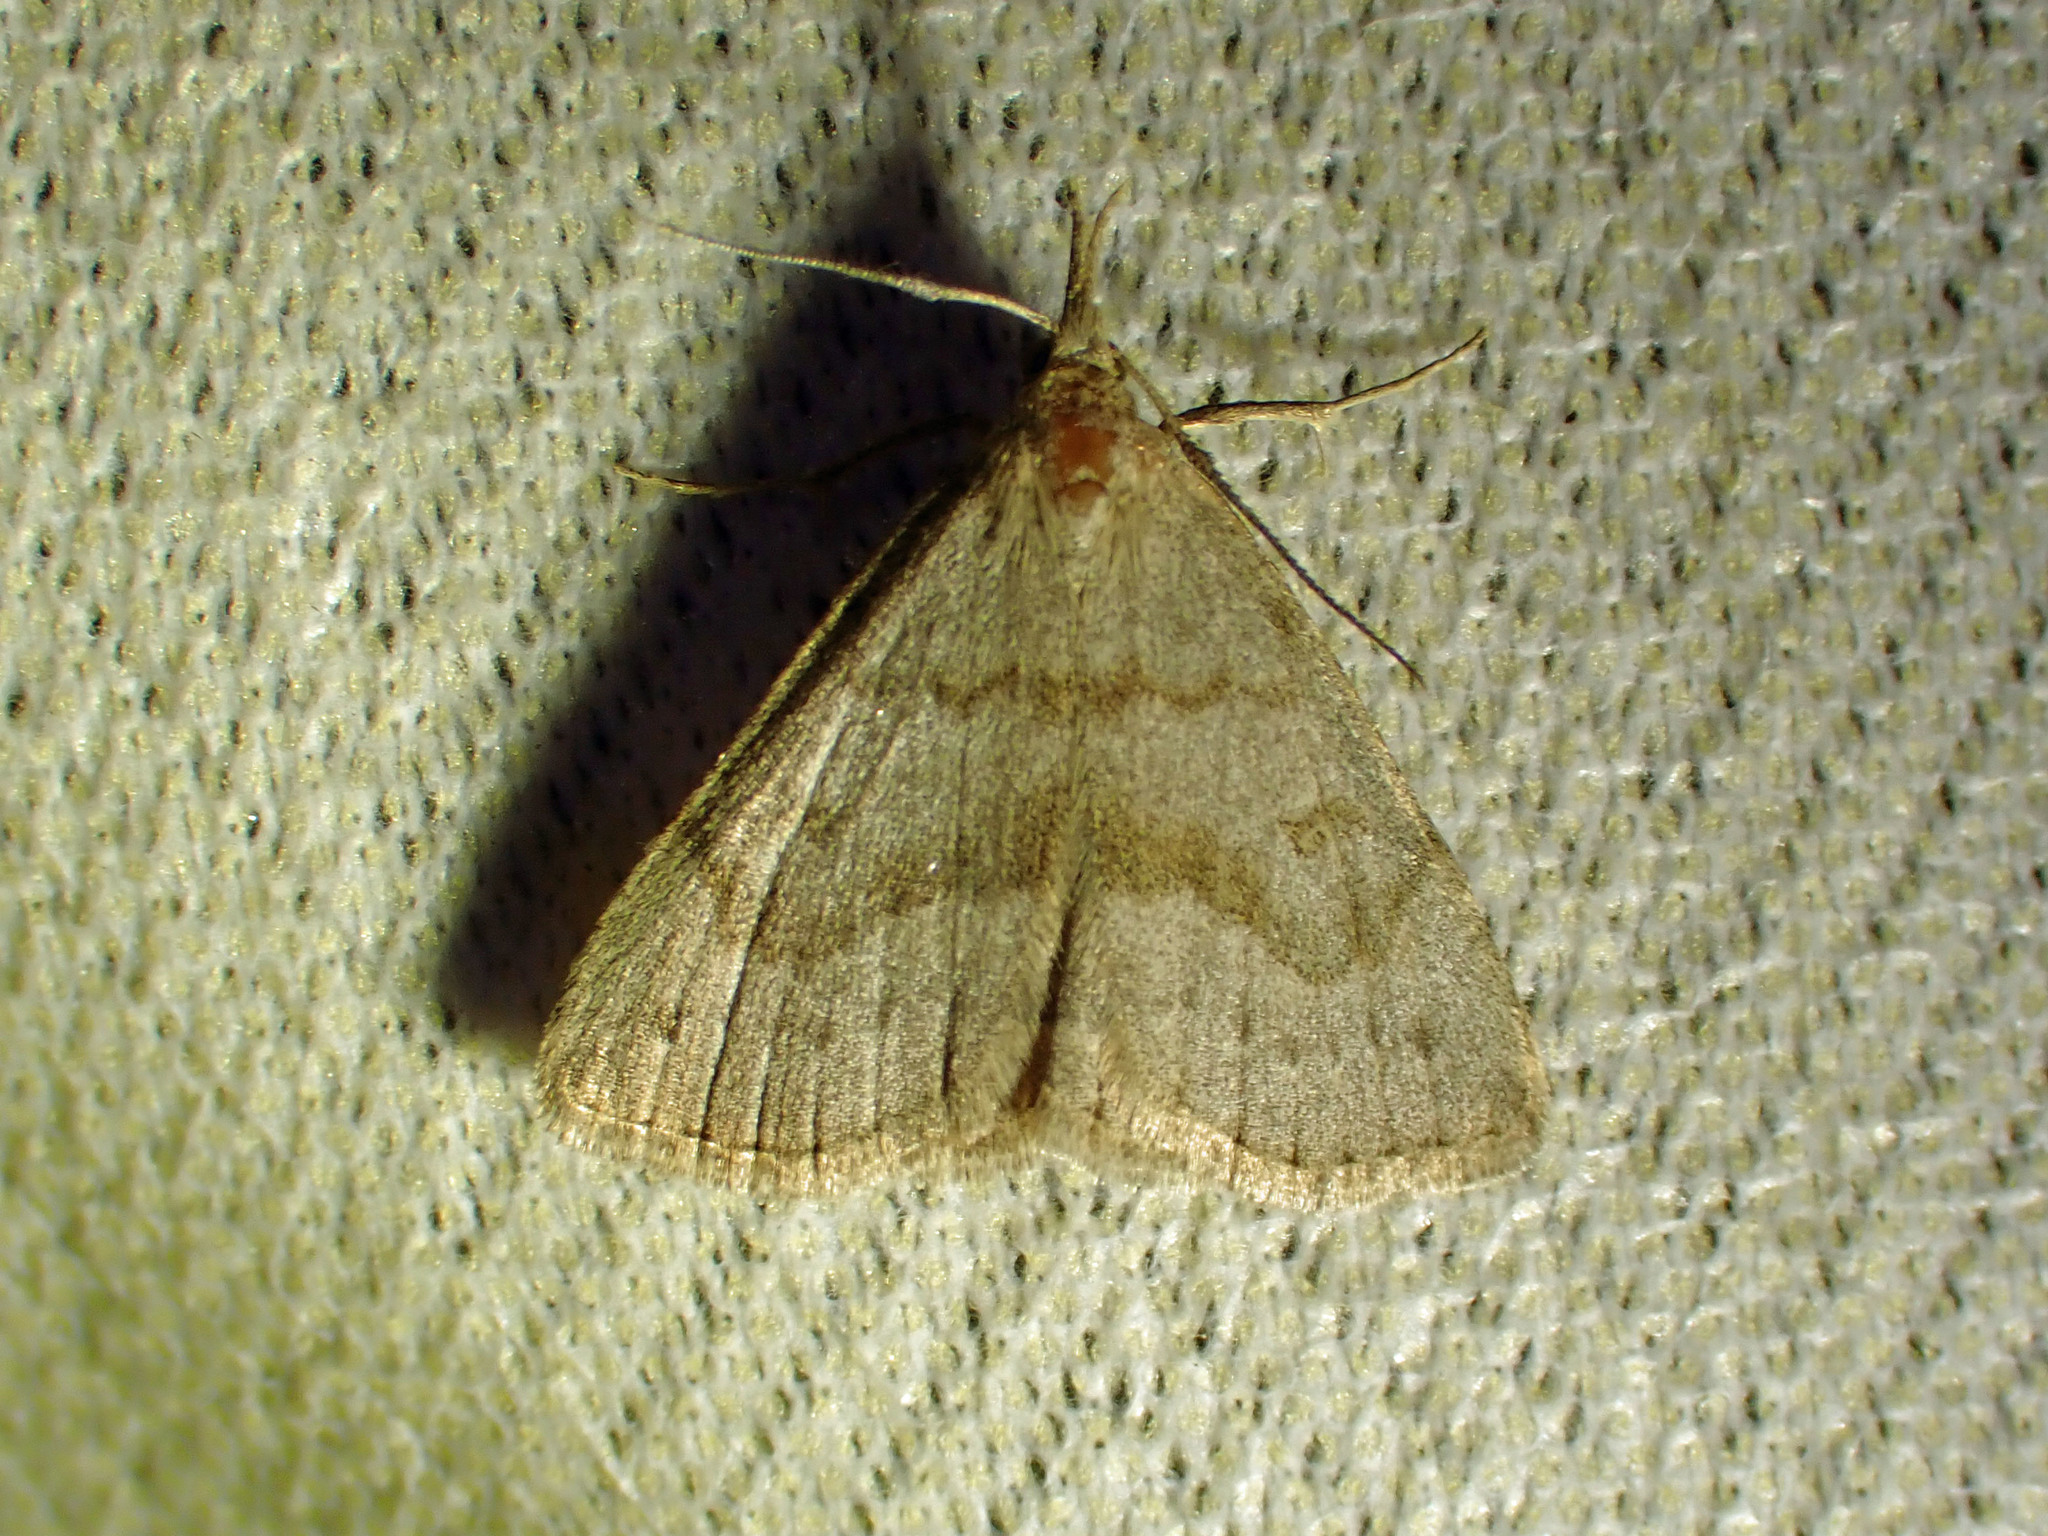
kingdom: Animalia
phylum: Arthropoda
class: Insecta
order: Lepidoptera
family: Erebidae
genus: Macrochilo
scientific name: Macrochilo morbidalis
